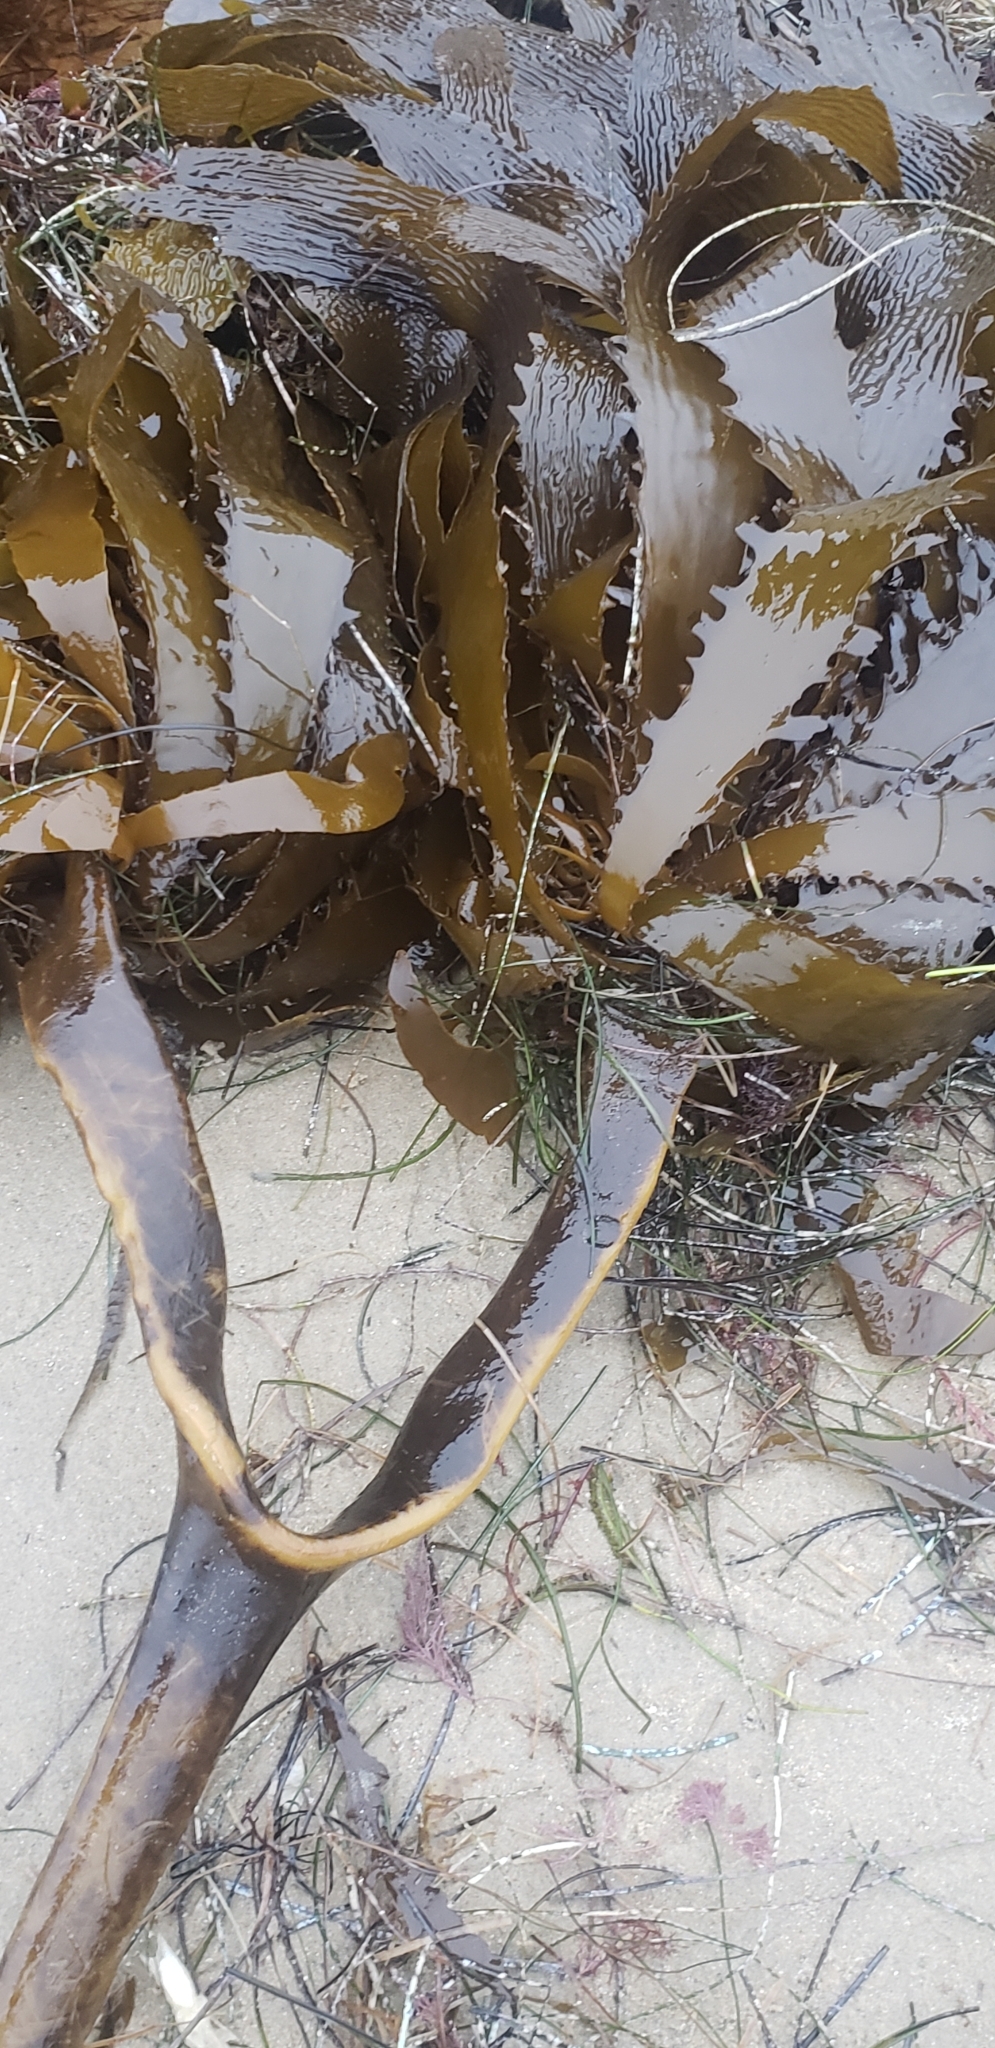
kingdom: Chromista
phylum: Ochrophyta
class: Phaeophyceae
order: Laminariales
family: Lessoniaceae
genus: Eisenia
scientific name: Eisenia arborea
